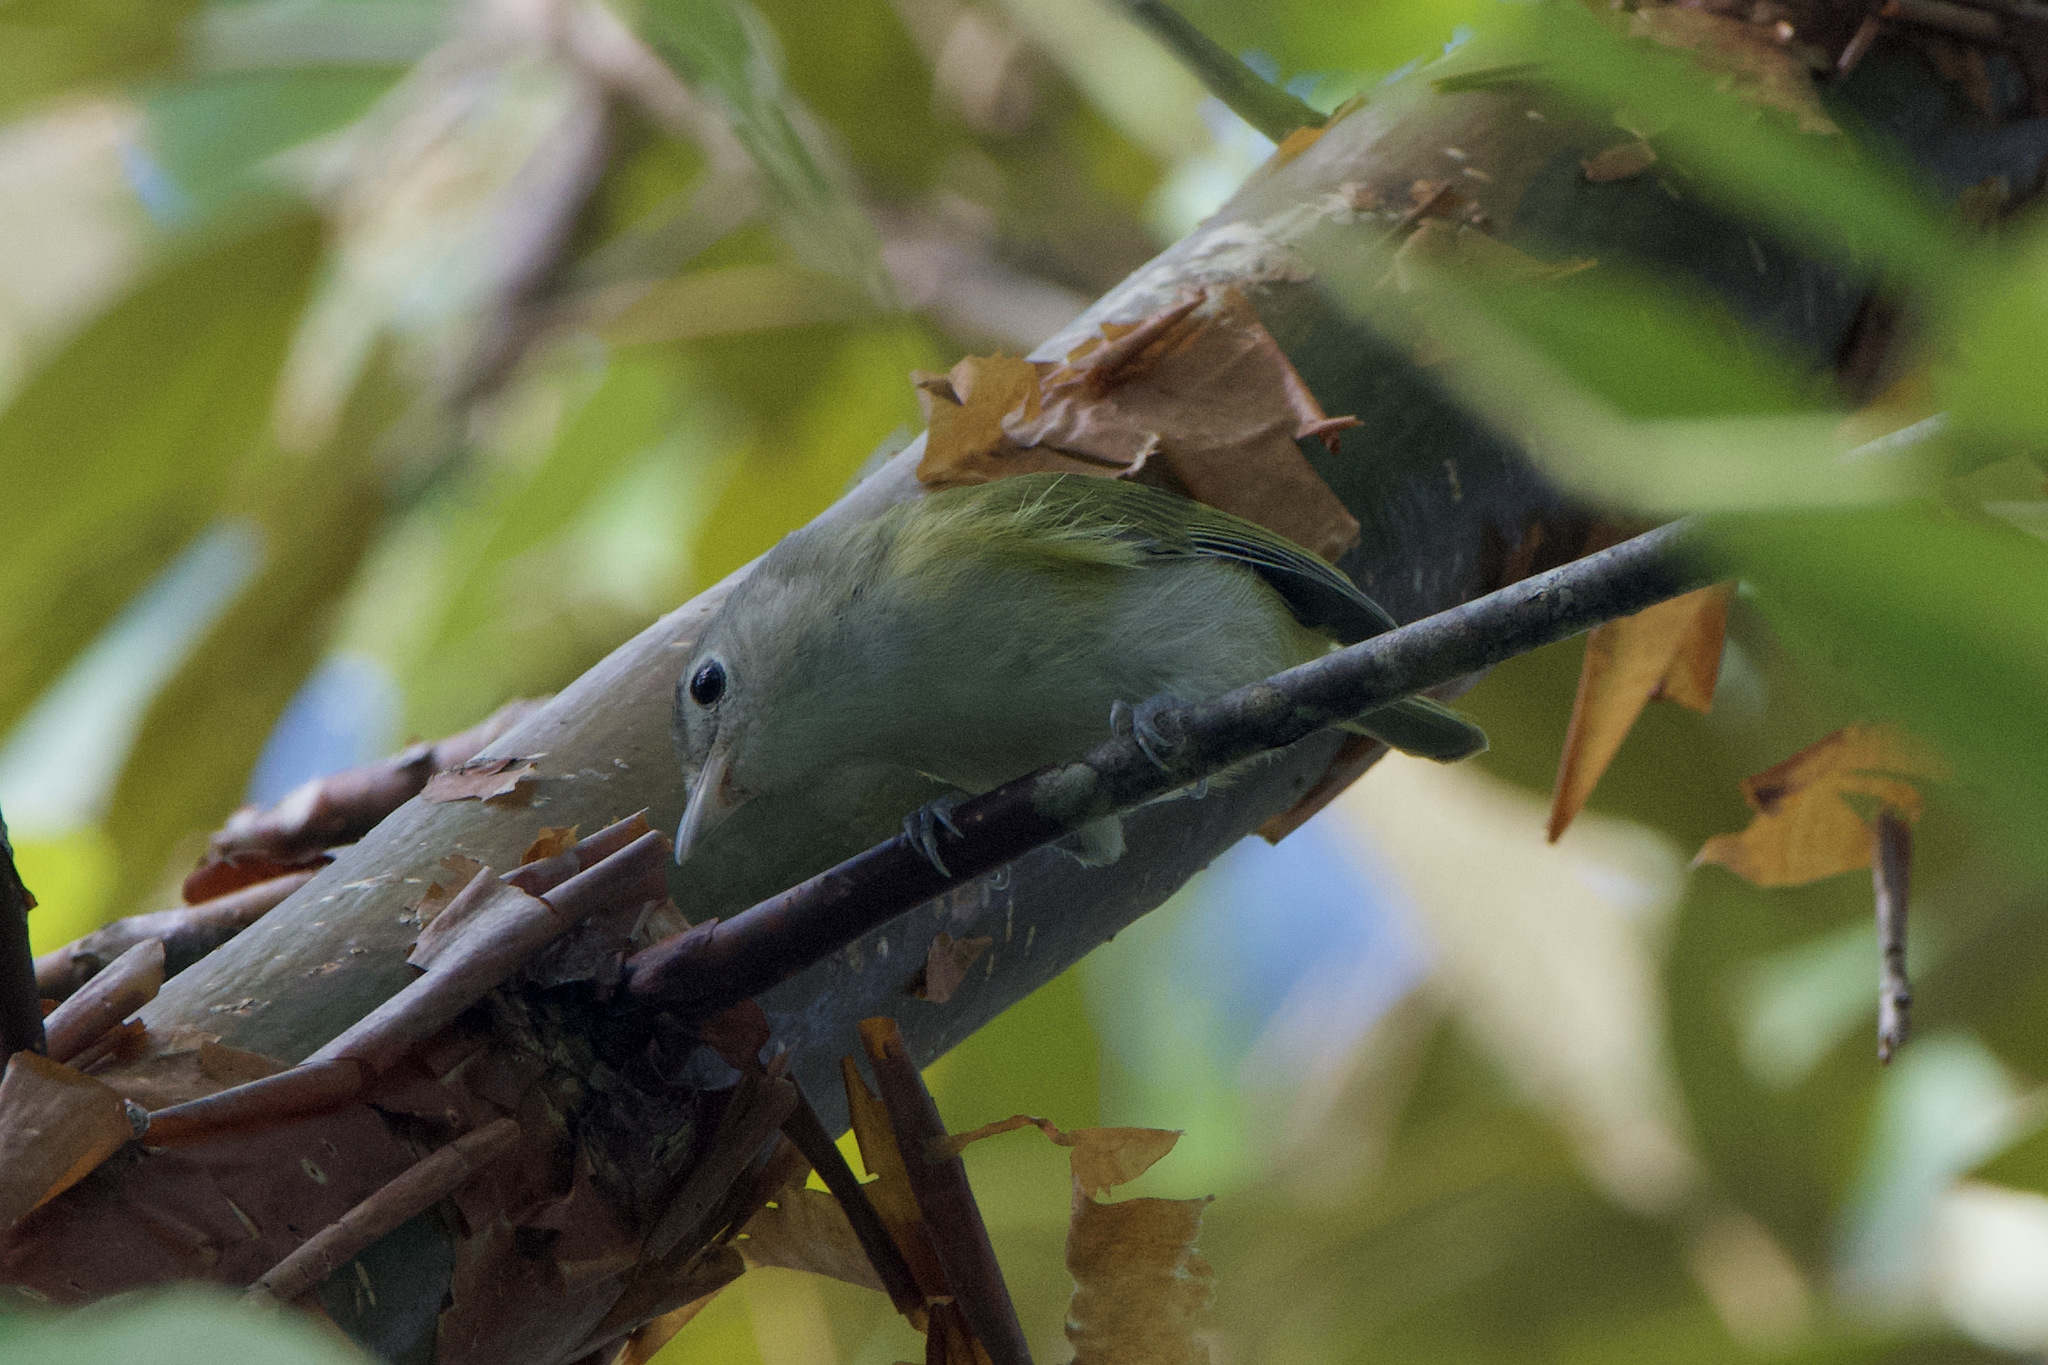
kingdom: Animalia
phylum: Chordata
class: Aves
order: Passeriformes
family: Vireonidae
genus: Hylophilus
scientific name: Hylophilus decurtatus
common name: Lesser greenlet
